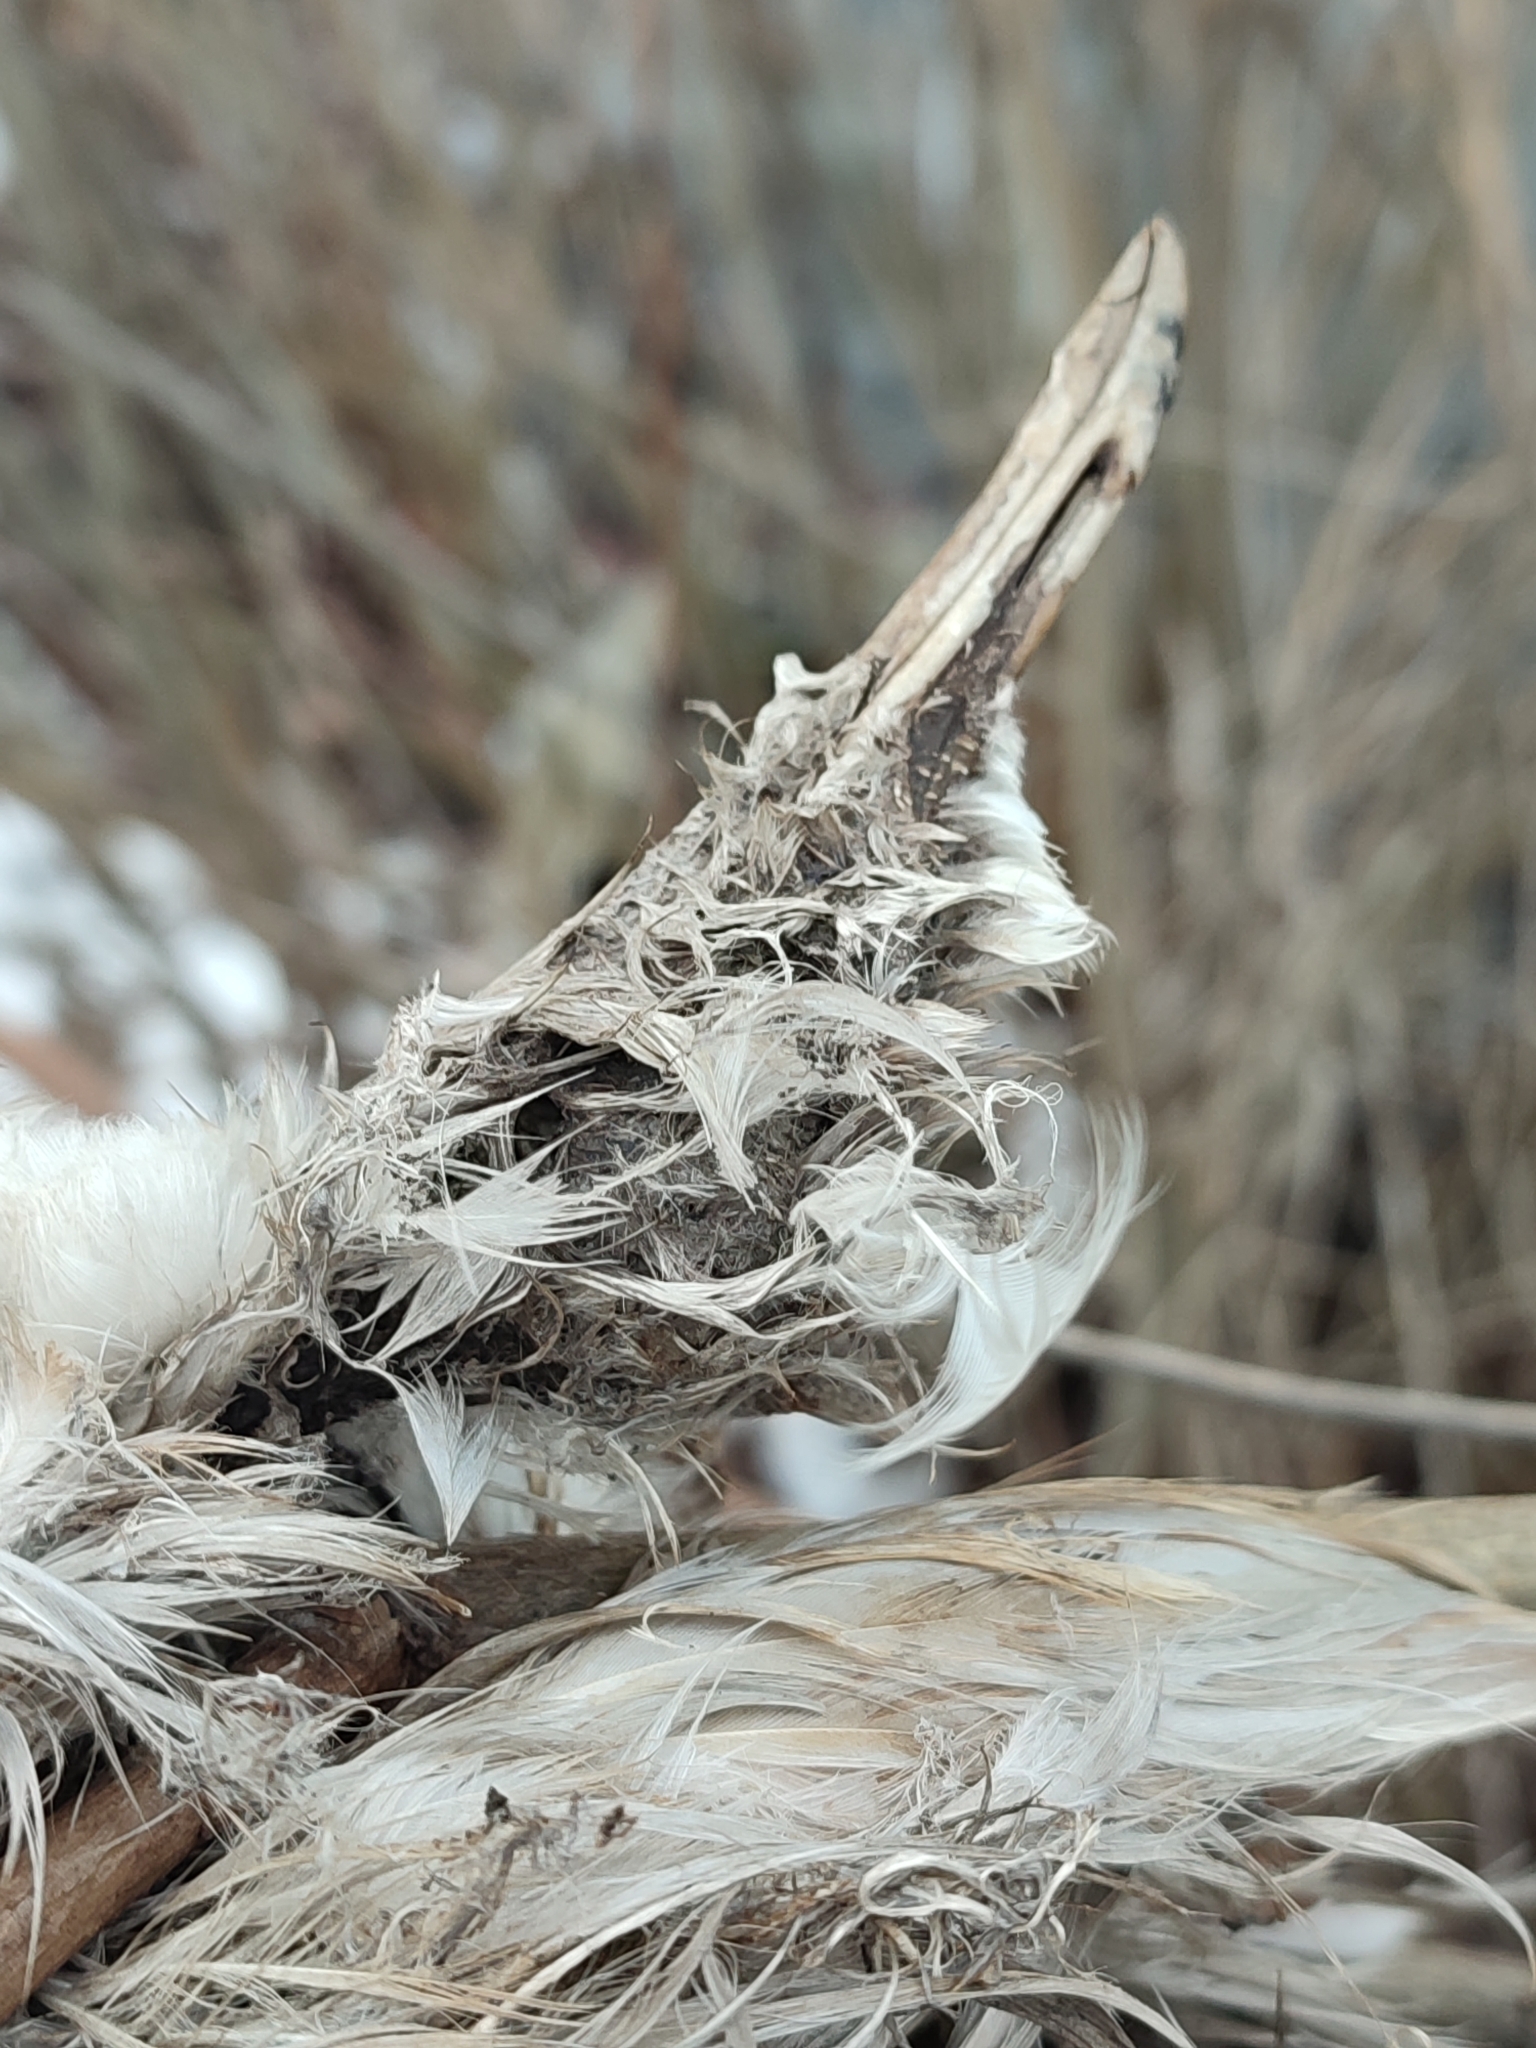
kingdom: Animalia
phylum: Chordata
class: Aves
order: Charadriiformes
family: Laridae
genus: Chroicocephalus
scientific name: Chroicocephalus ridibundus
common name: Black-headed gull
